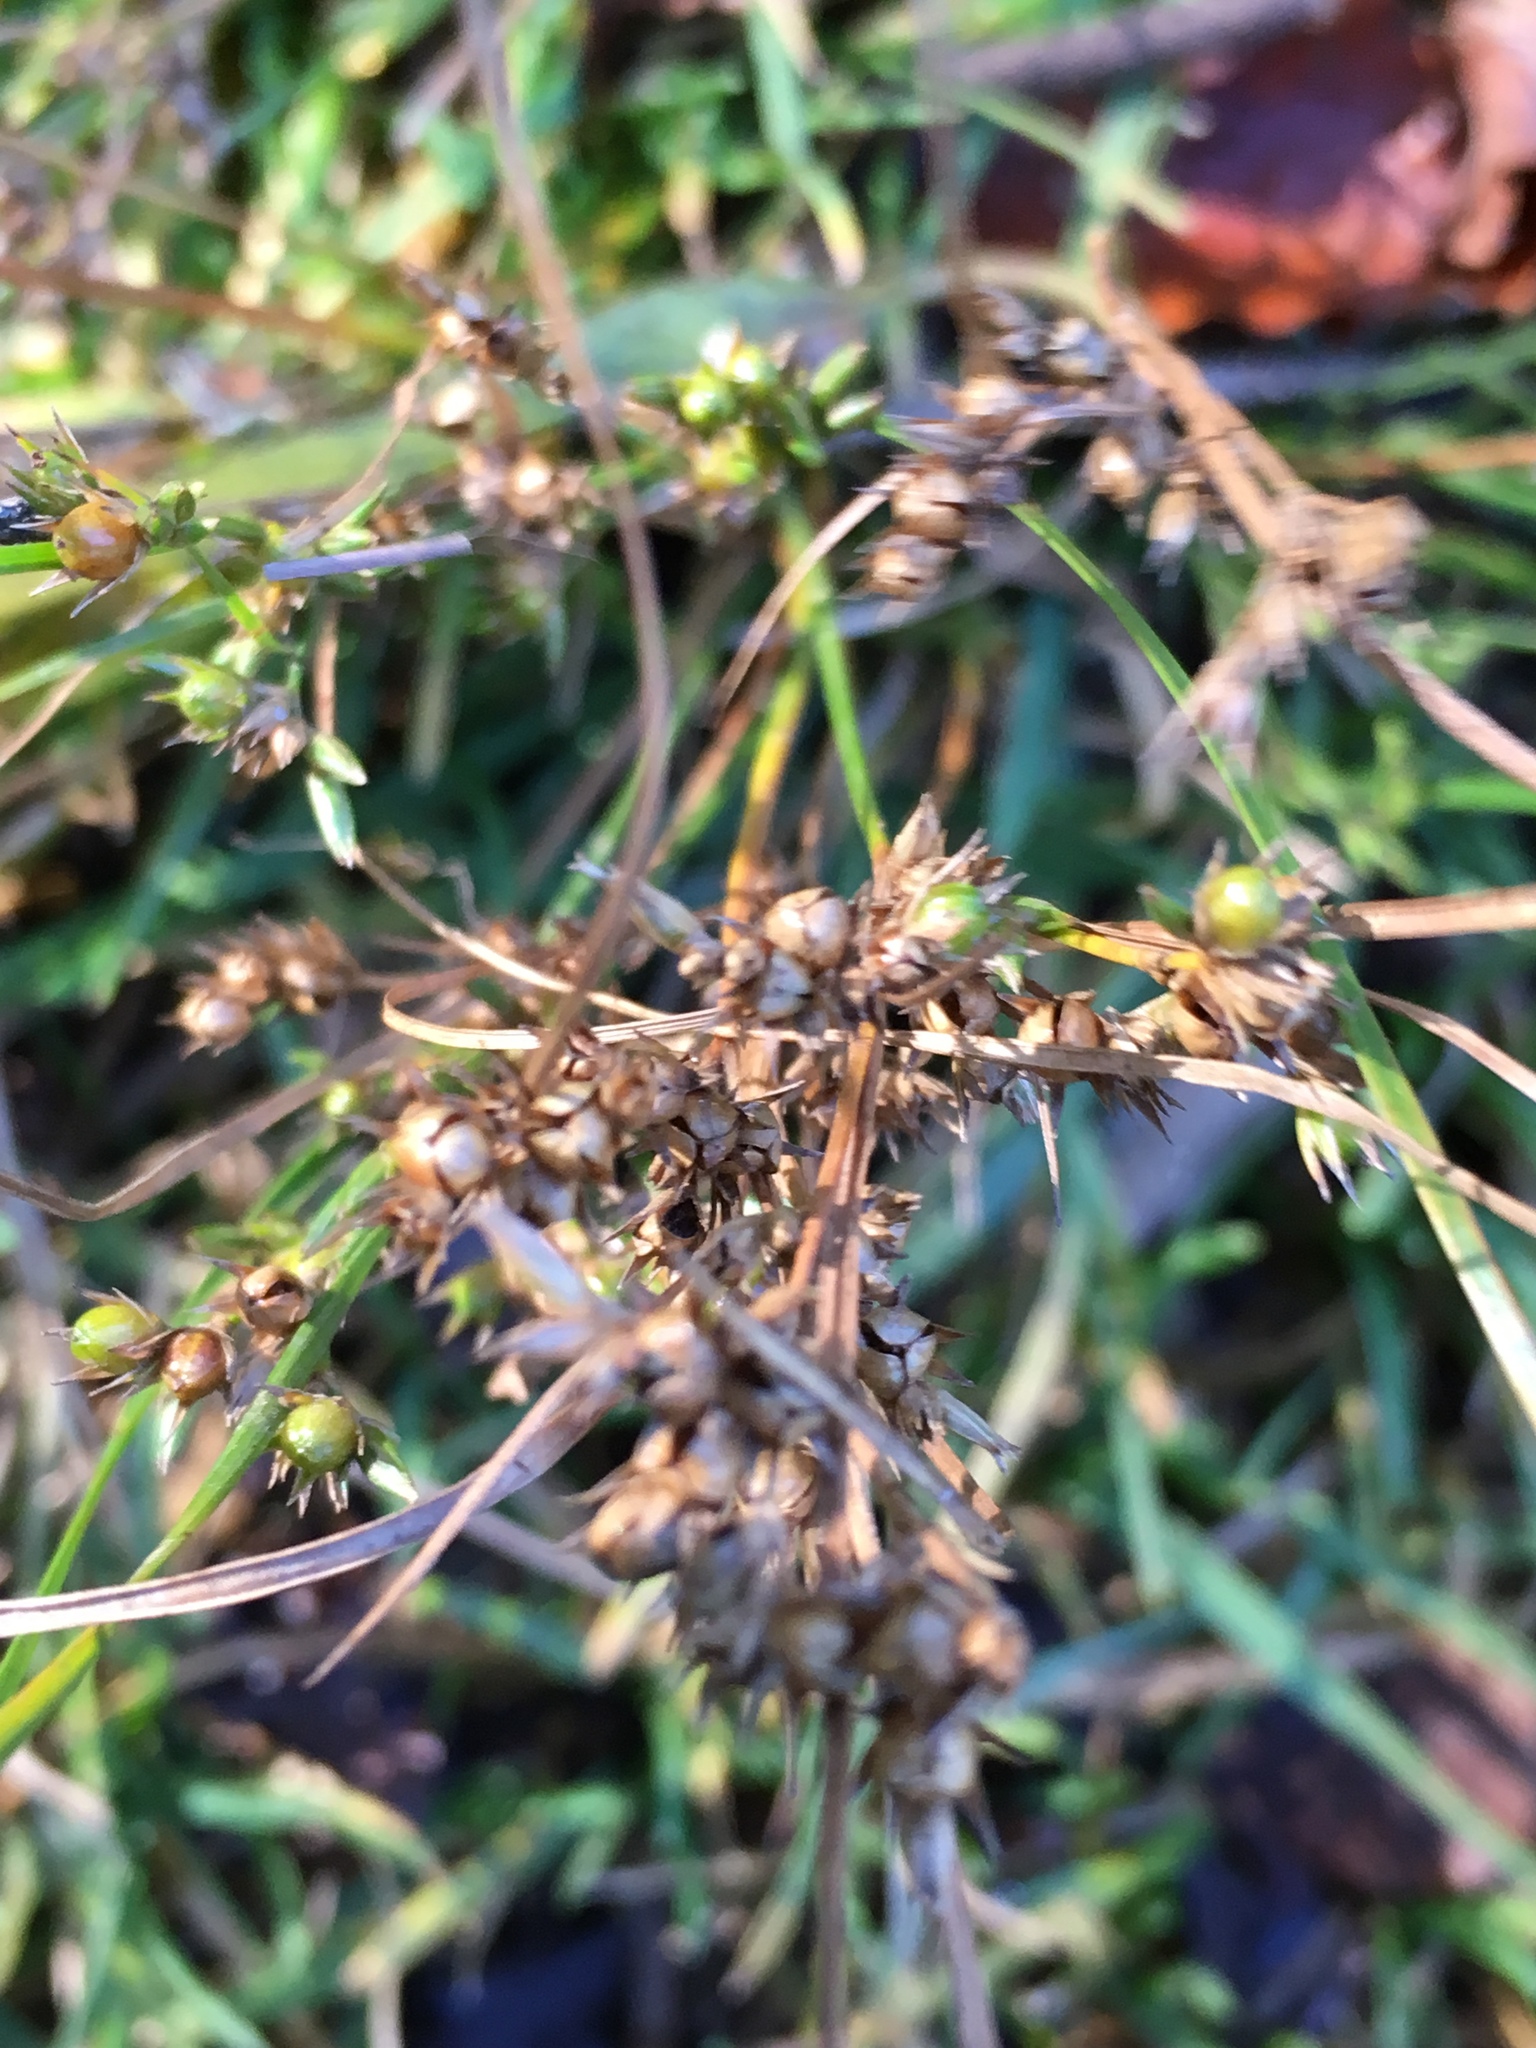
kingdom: Plantae
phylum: Tracheophyta
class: Liliopsida
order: Poales
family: Juncaceae
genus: Juncus
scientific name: Juncus tenuis
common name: Slender rush
